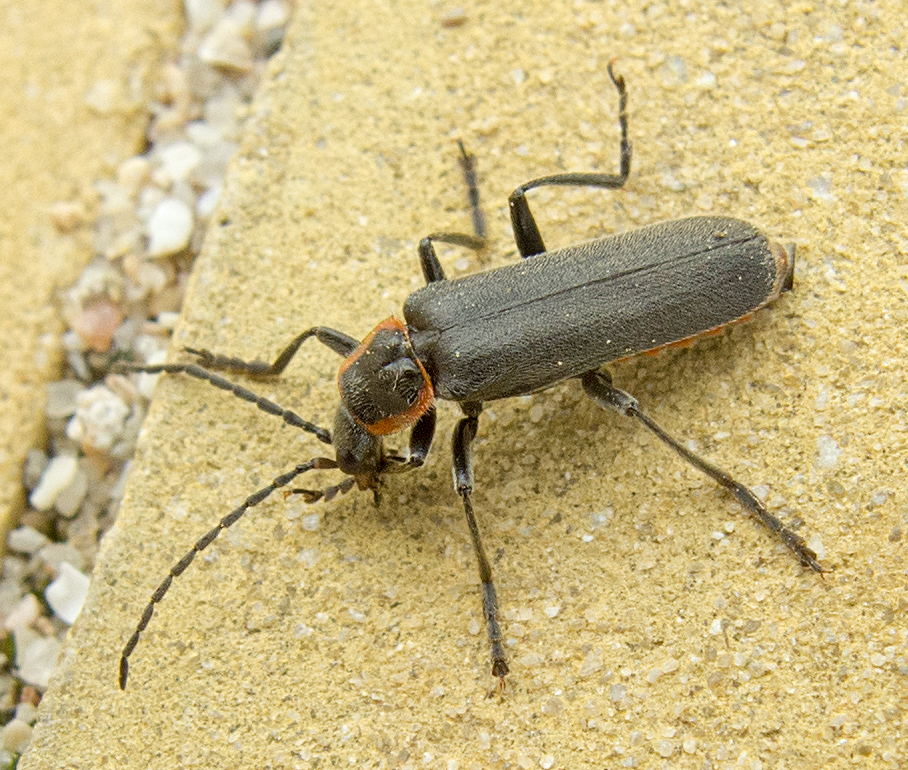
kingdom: Animalia
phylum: Arthropoda
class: Insecta
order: Coleoptera
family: Cantharidae
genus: Cantharis
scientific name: Cantharis pulicaria
